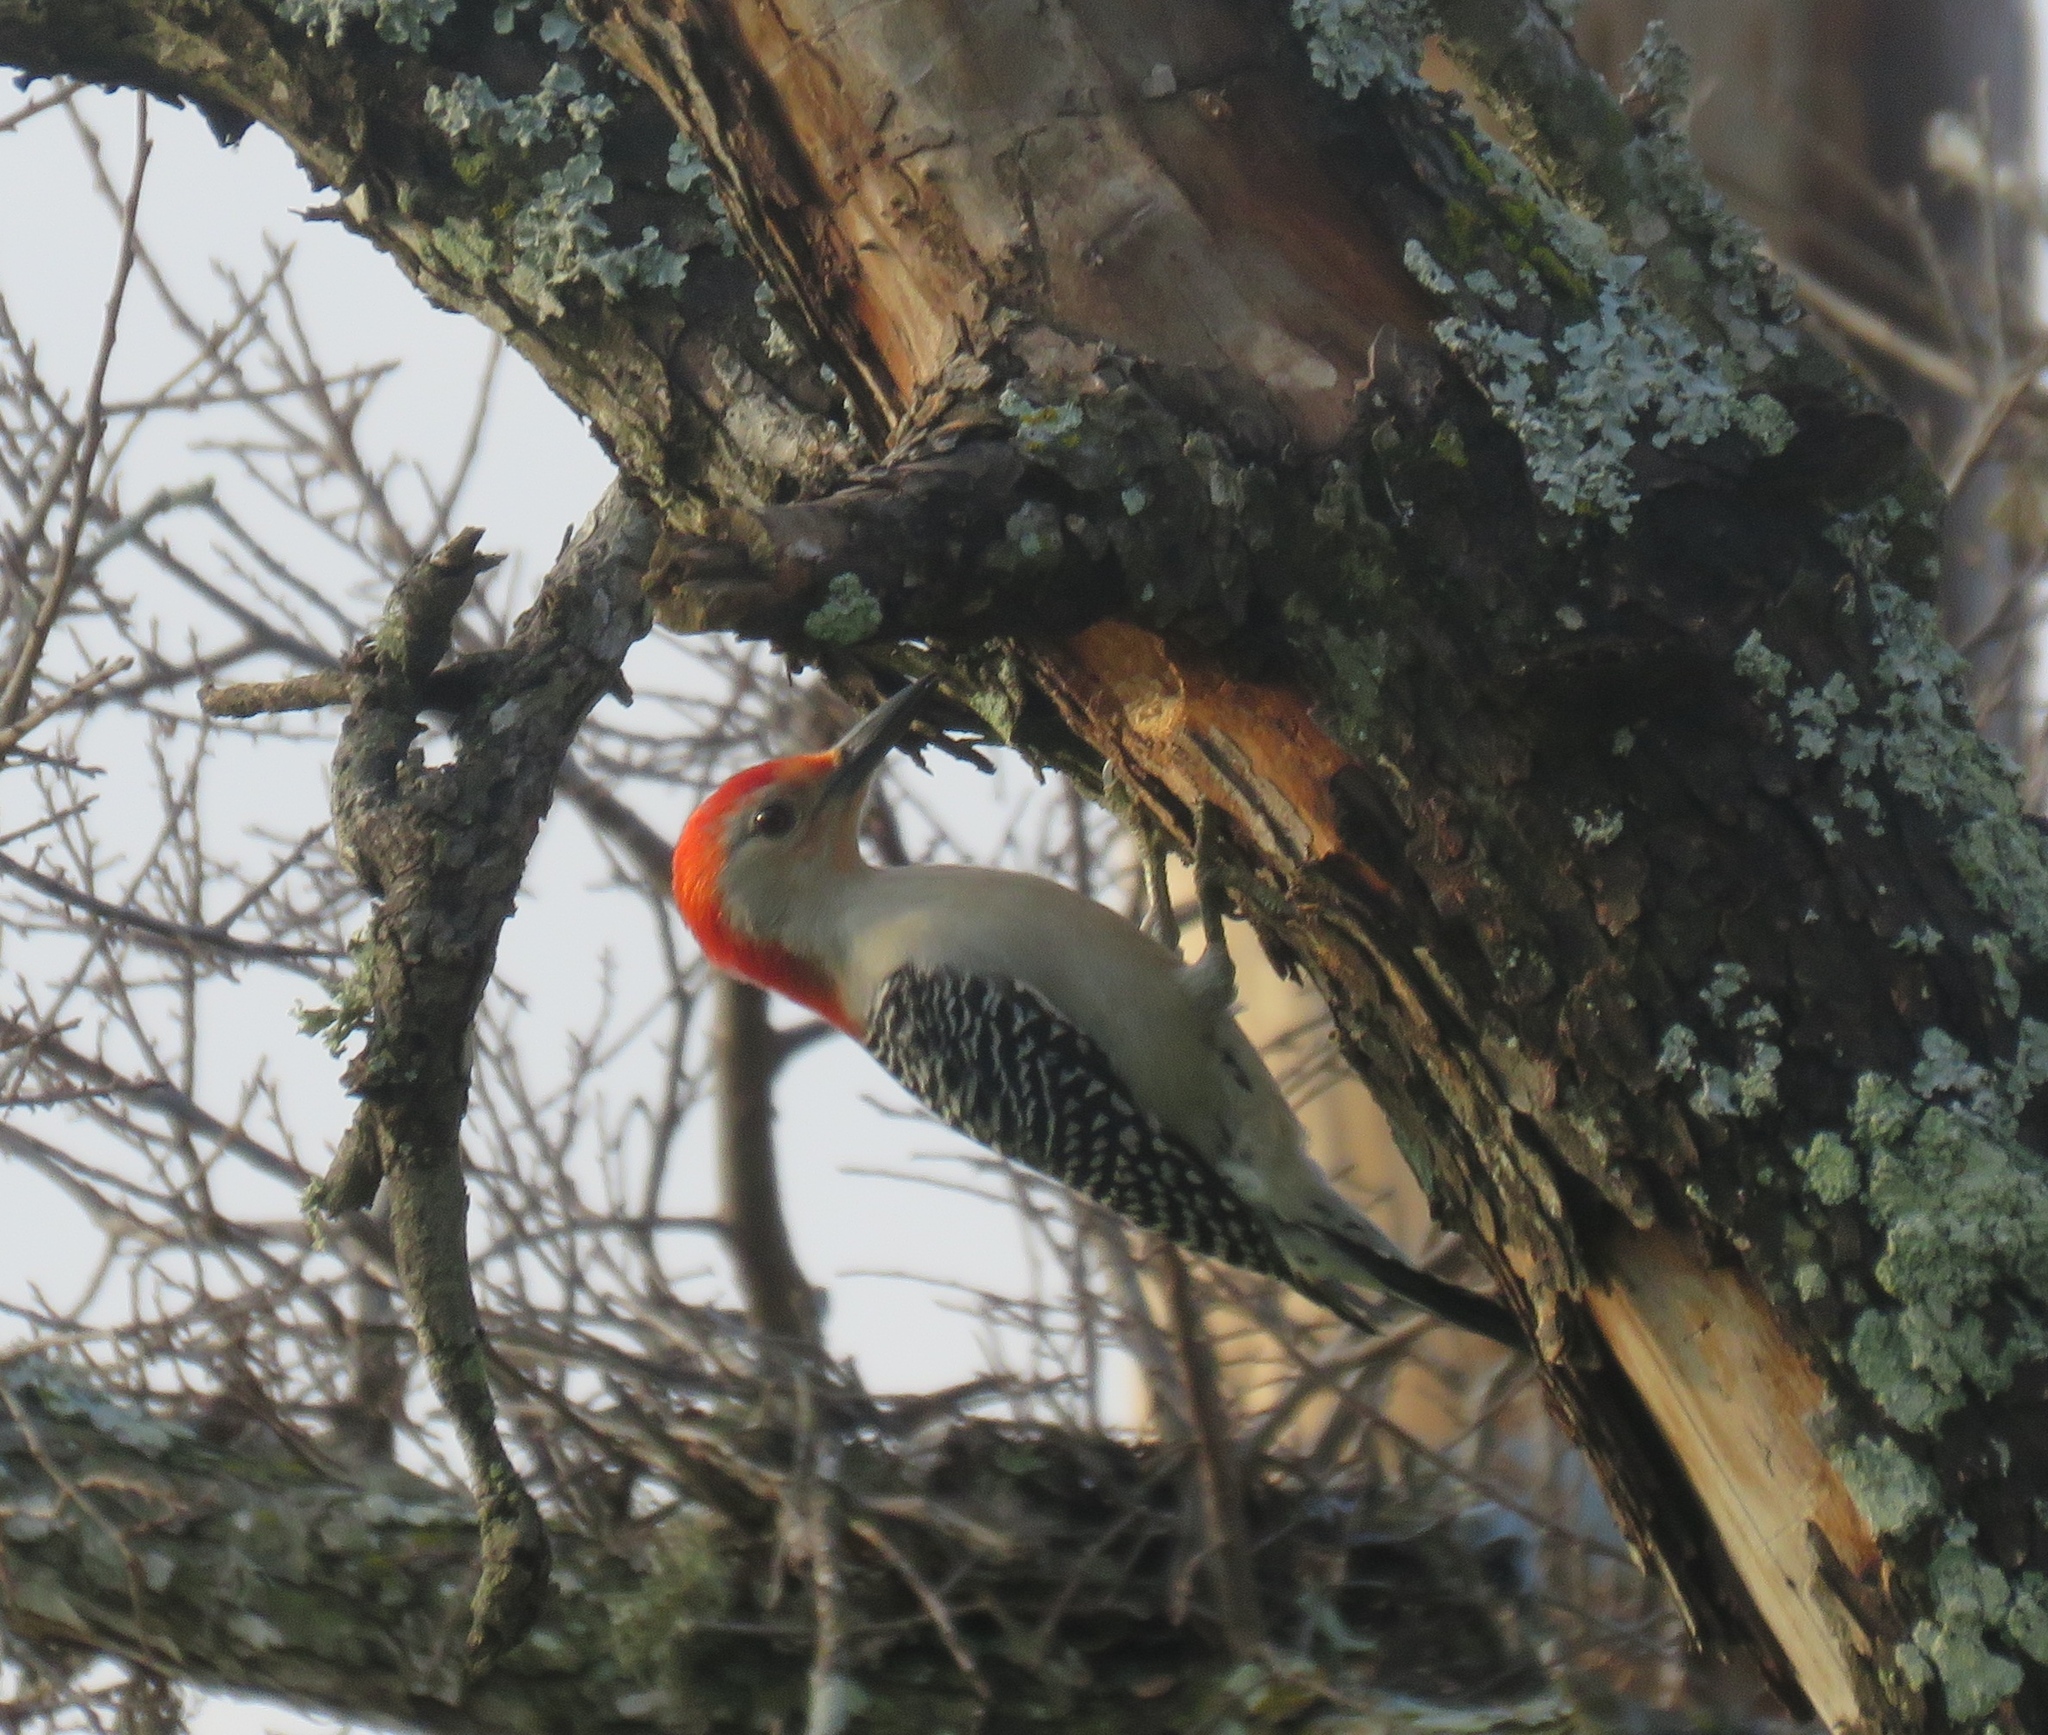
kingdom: Animalia
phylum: Chordata
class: Aves
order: Piciformes
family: Picidae
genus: Melanerpes
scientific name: Melanerpes carolinus
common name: Red-bellied woodpecker
